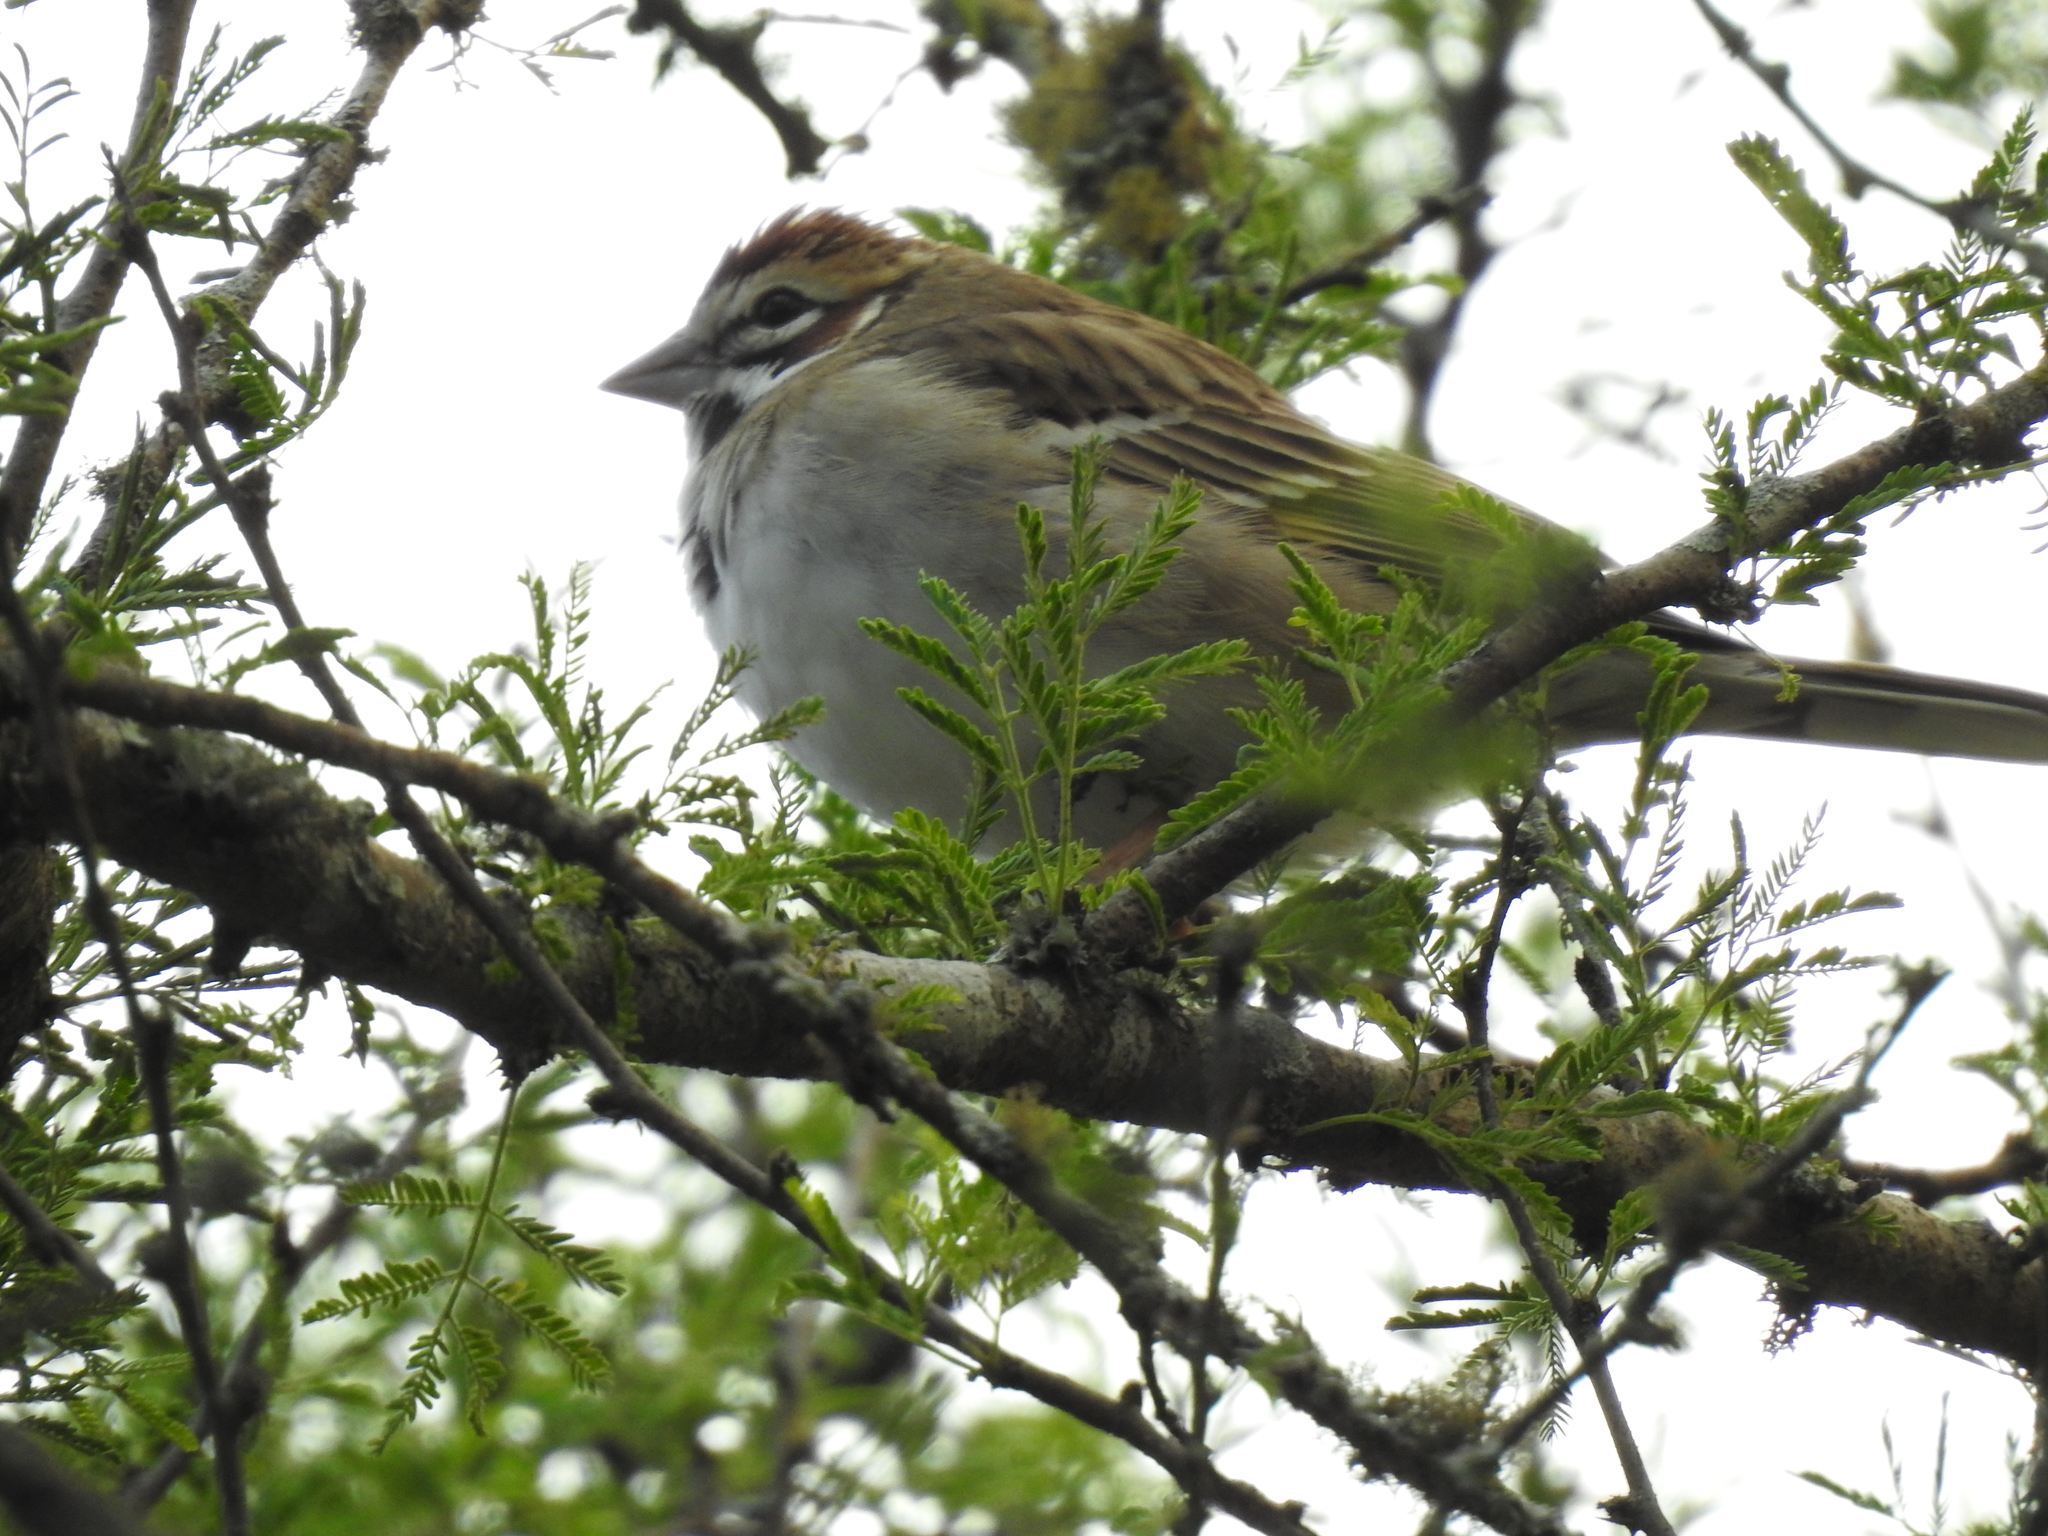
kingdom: Animalia
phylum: Chordata
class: Aves
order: Passeriformes
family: Passerellidae
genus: Chondestes
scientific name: Chondestes grammacus
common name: Lark sparrow
